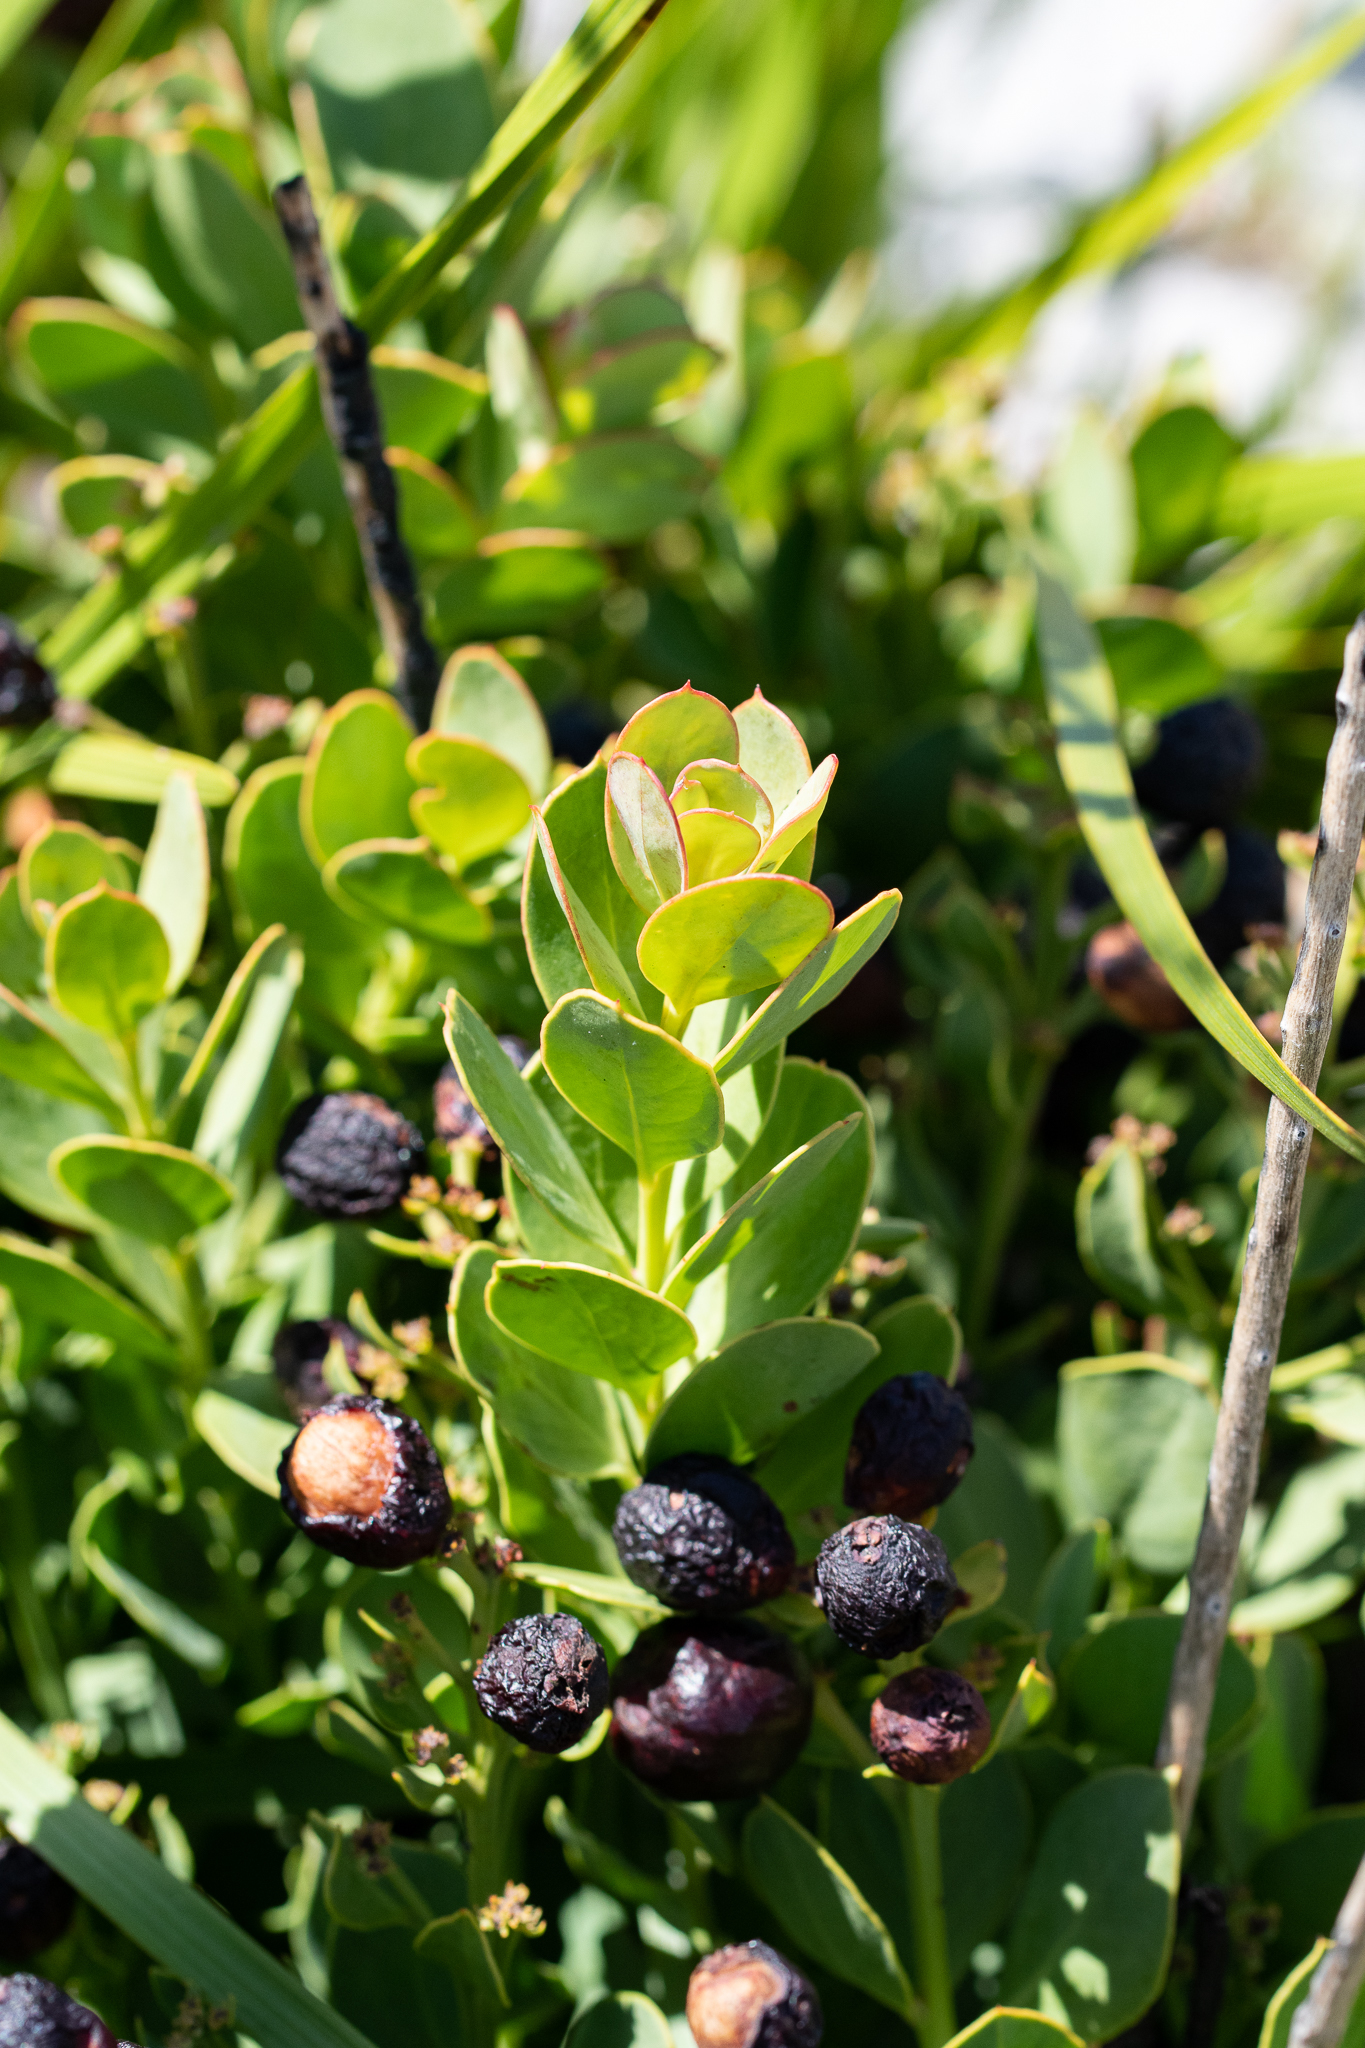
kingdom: Plantae
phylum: Tracheophyta
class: Magnoliopsida
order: Santalales
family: Santalaceae
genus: Osyris
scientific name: Osyris speciosa
